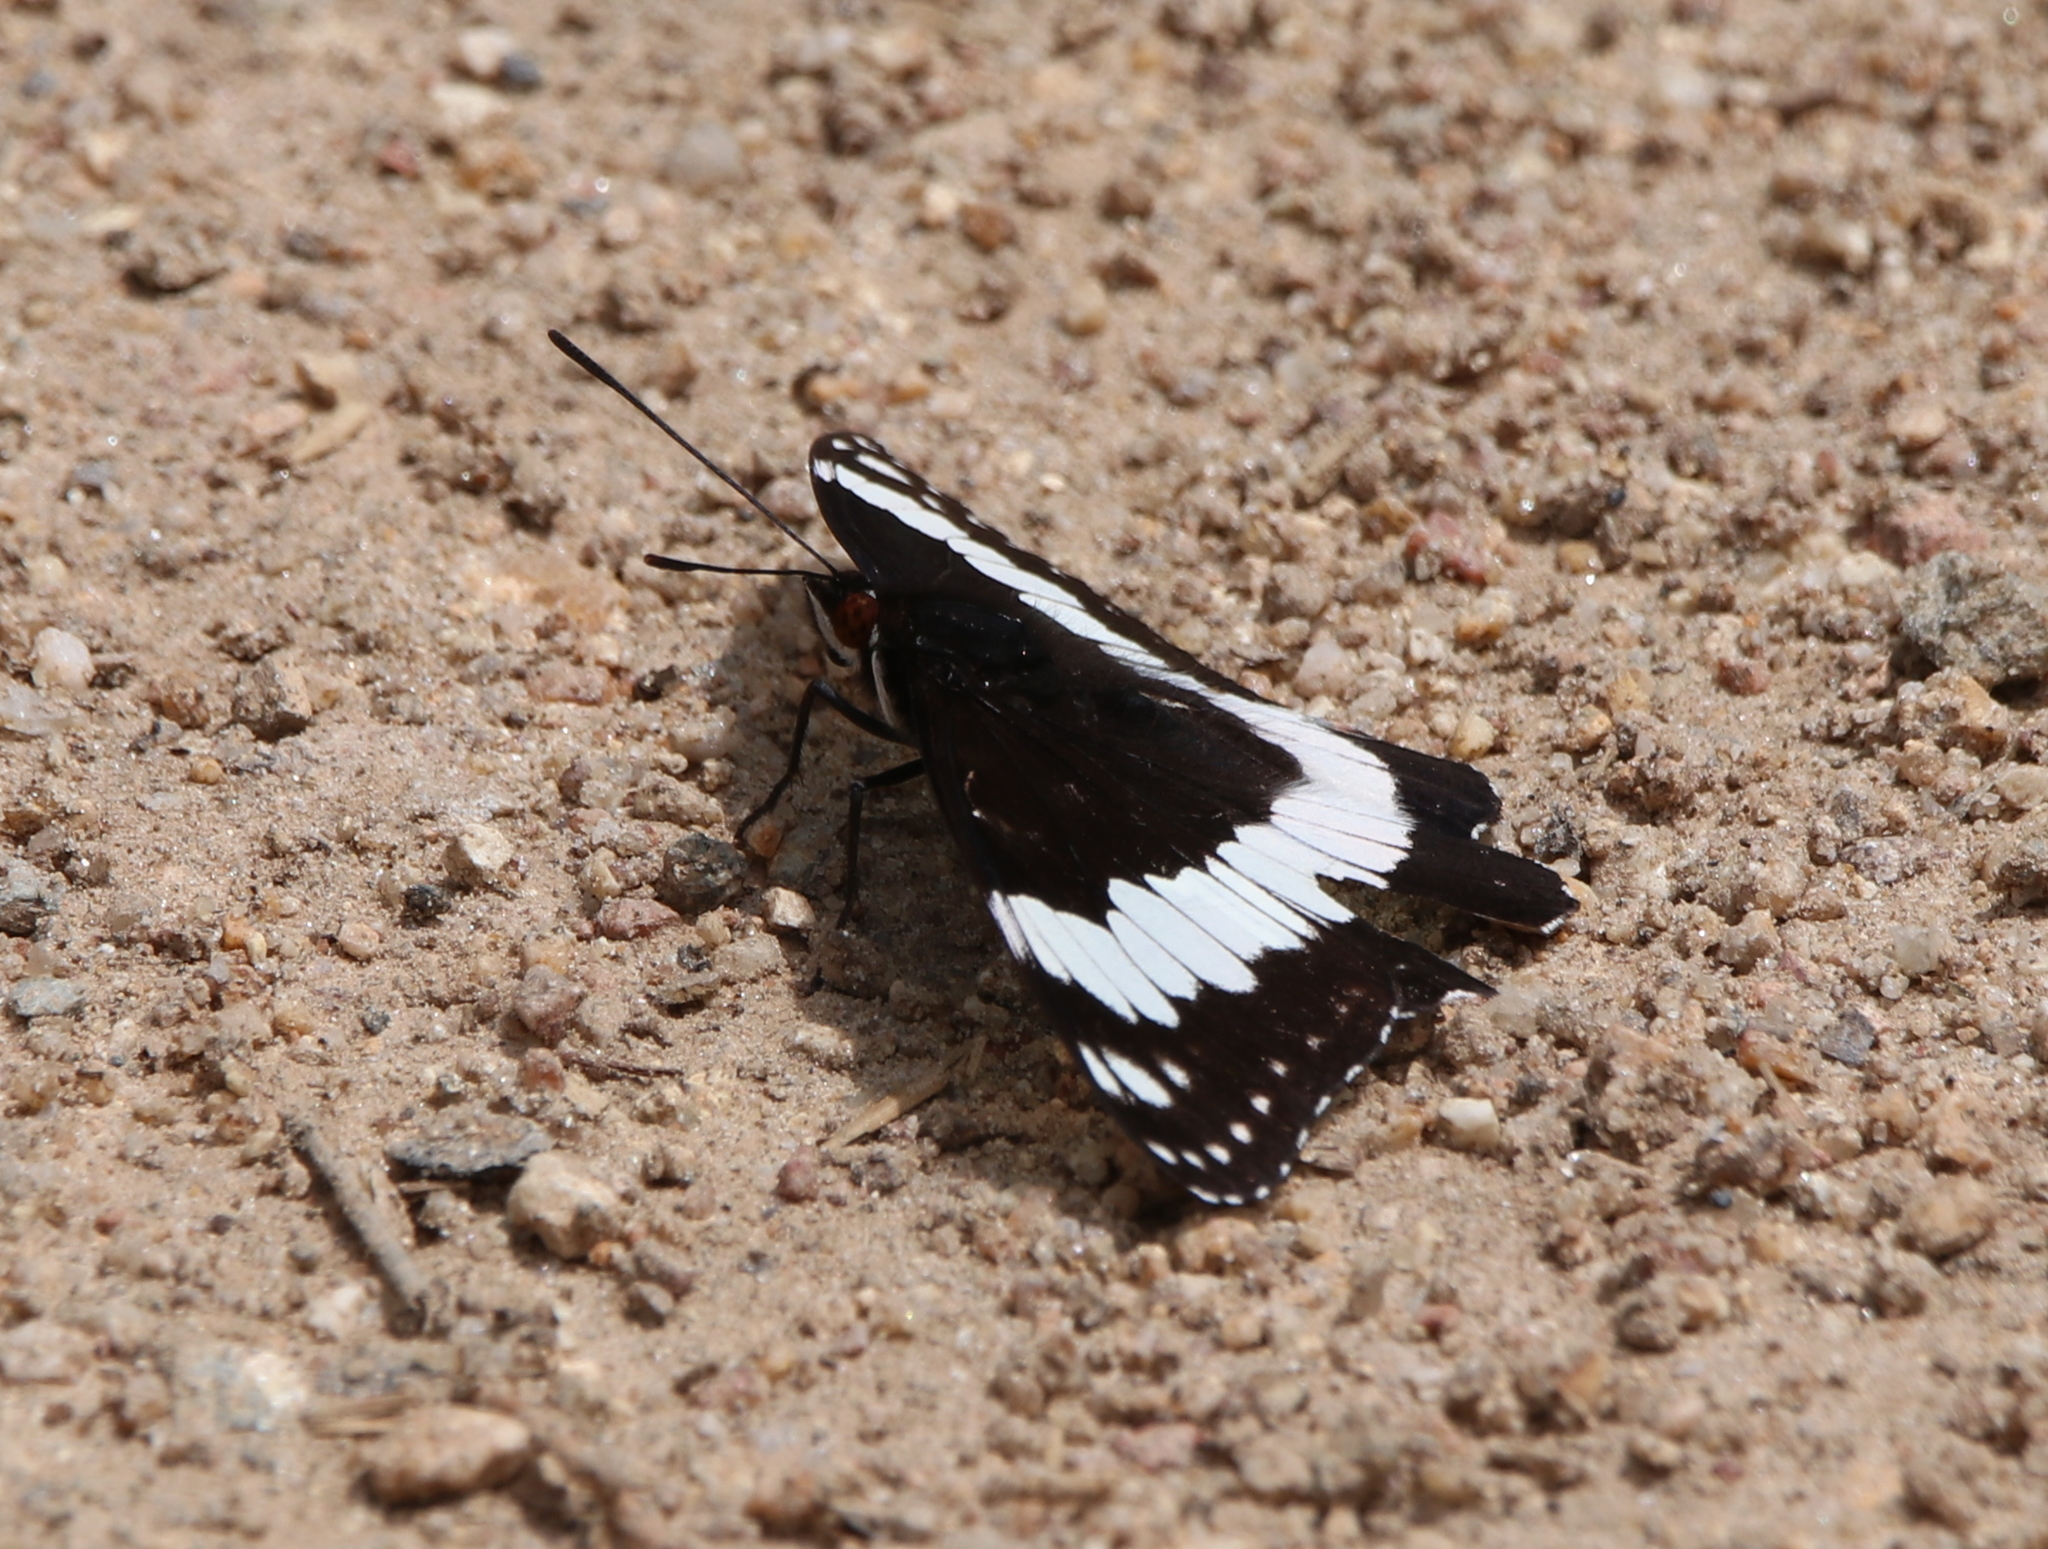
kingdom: Animalia
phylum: Arthropoda
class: Insecta
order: Lepidoptera
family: Nymphalidae
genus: Limenitis
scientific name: Limenitis weidemeyerii
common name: Weidemeyer's admiral
